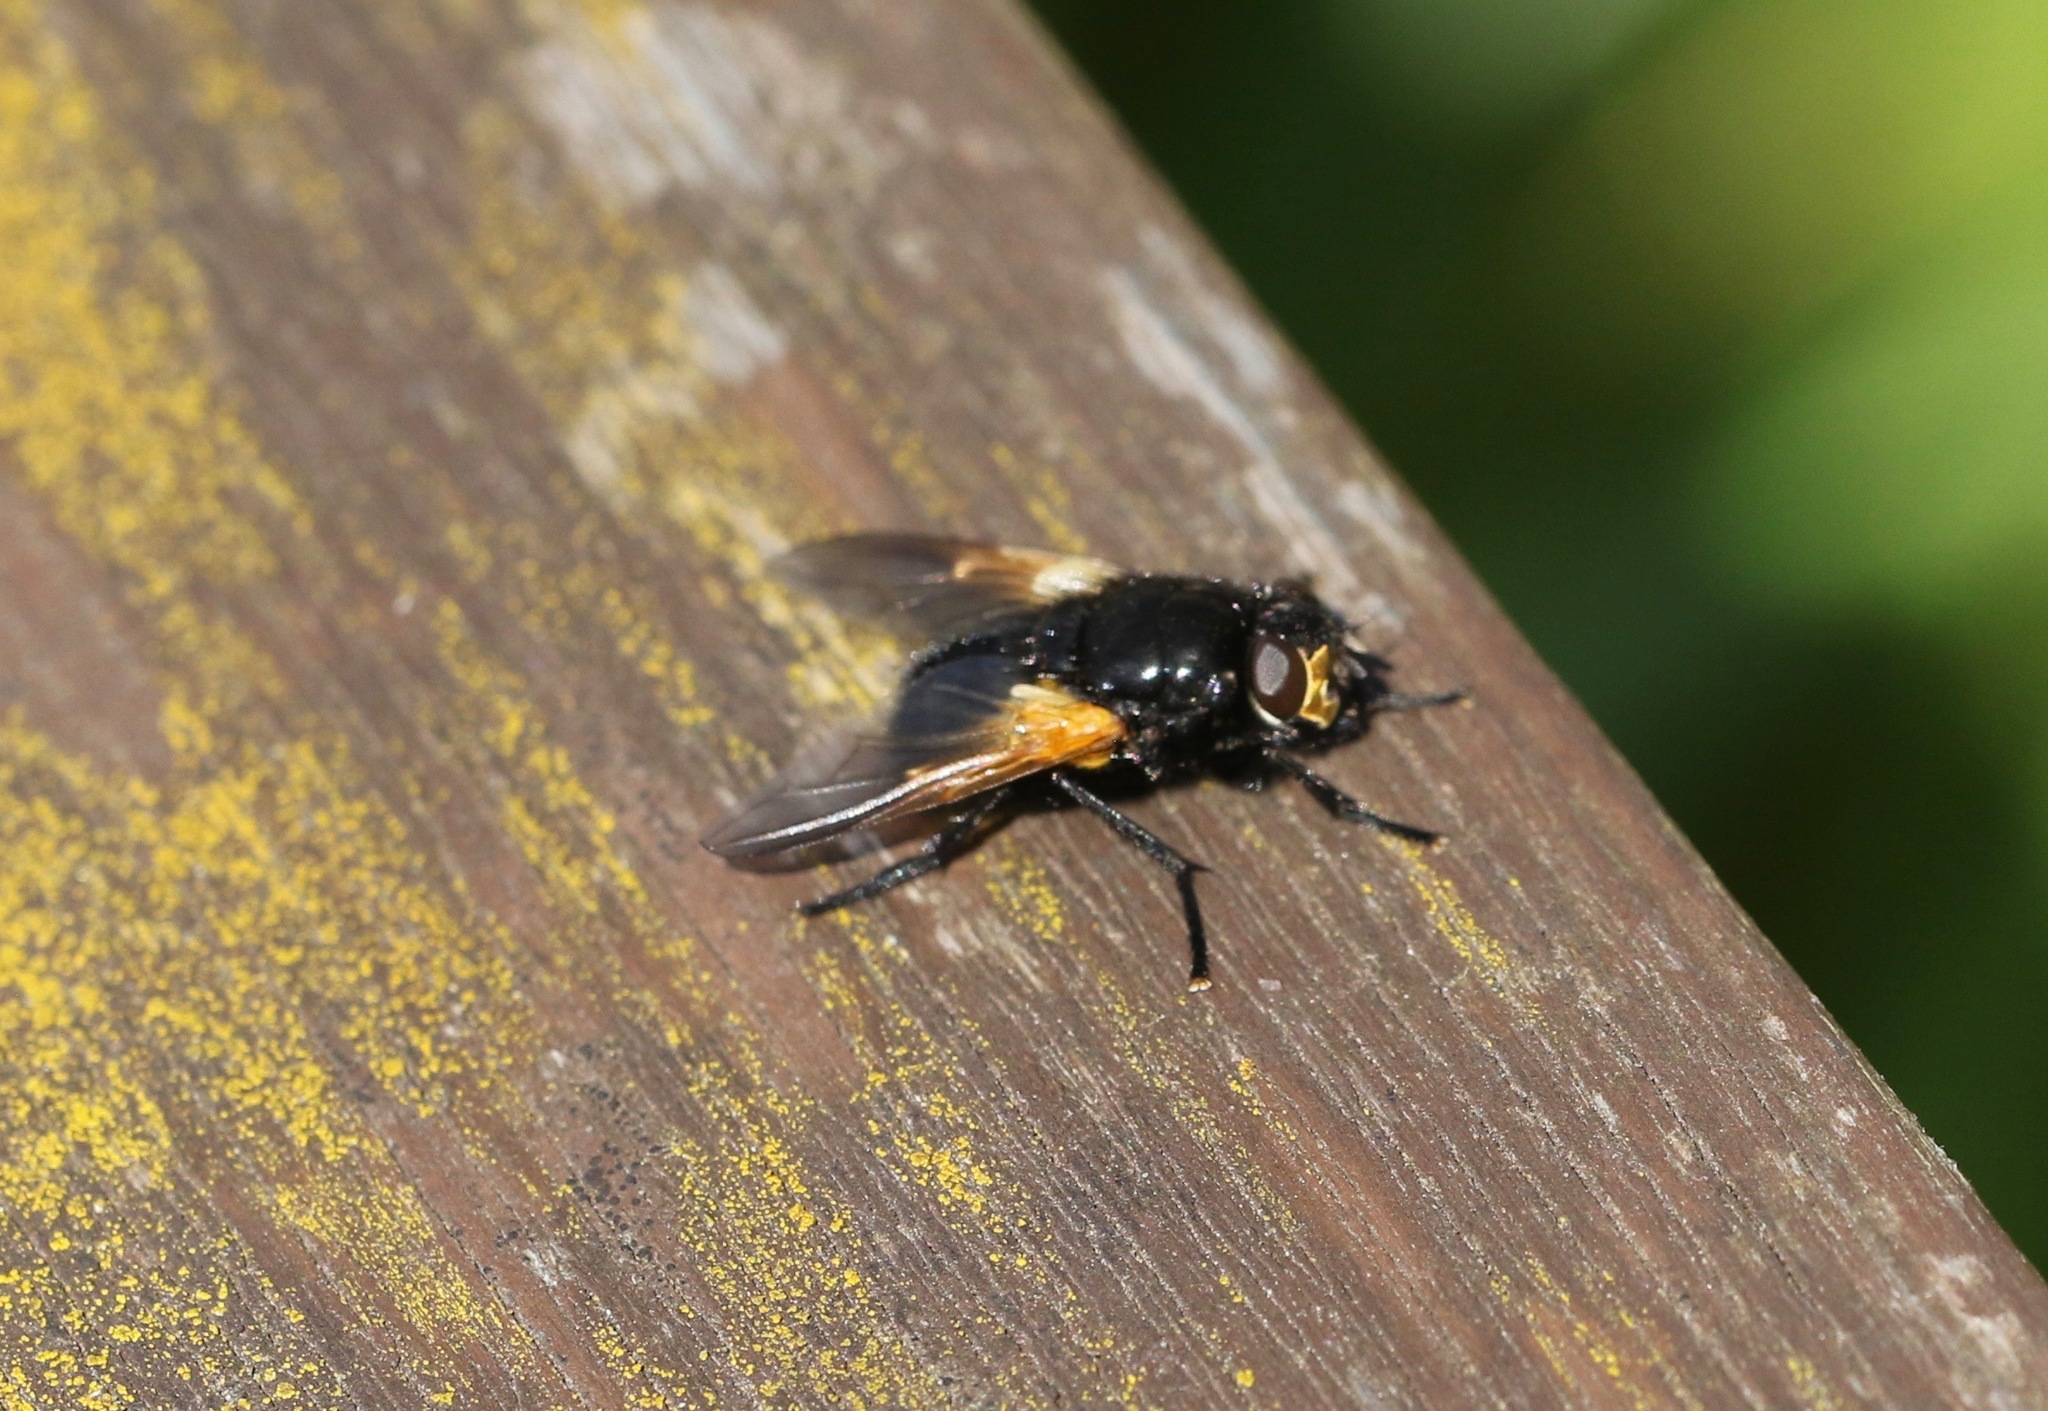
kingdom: Animalia
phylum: Arthropoda
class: Insecta
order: Diptera
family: Muscidae
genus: Mesembrina
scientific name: Mesembrina meridiana
